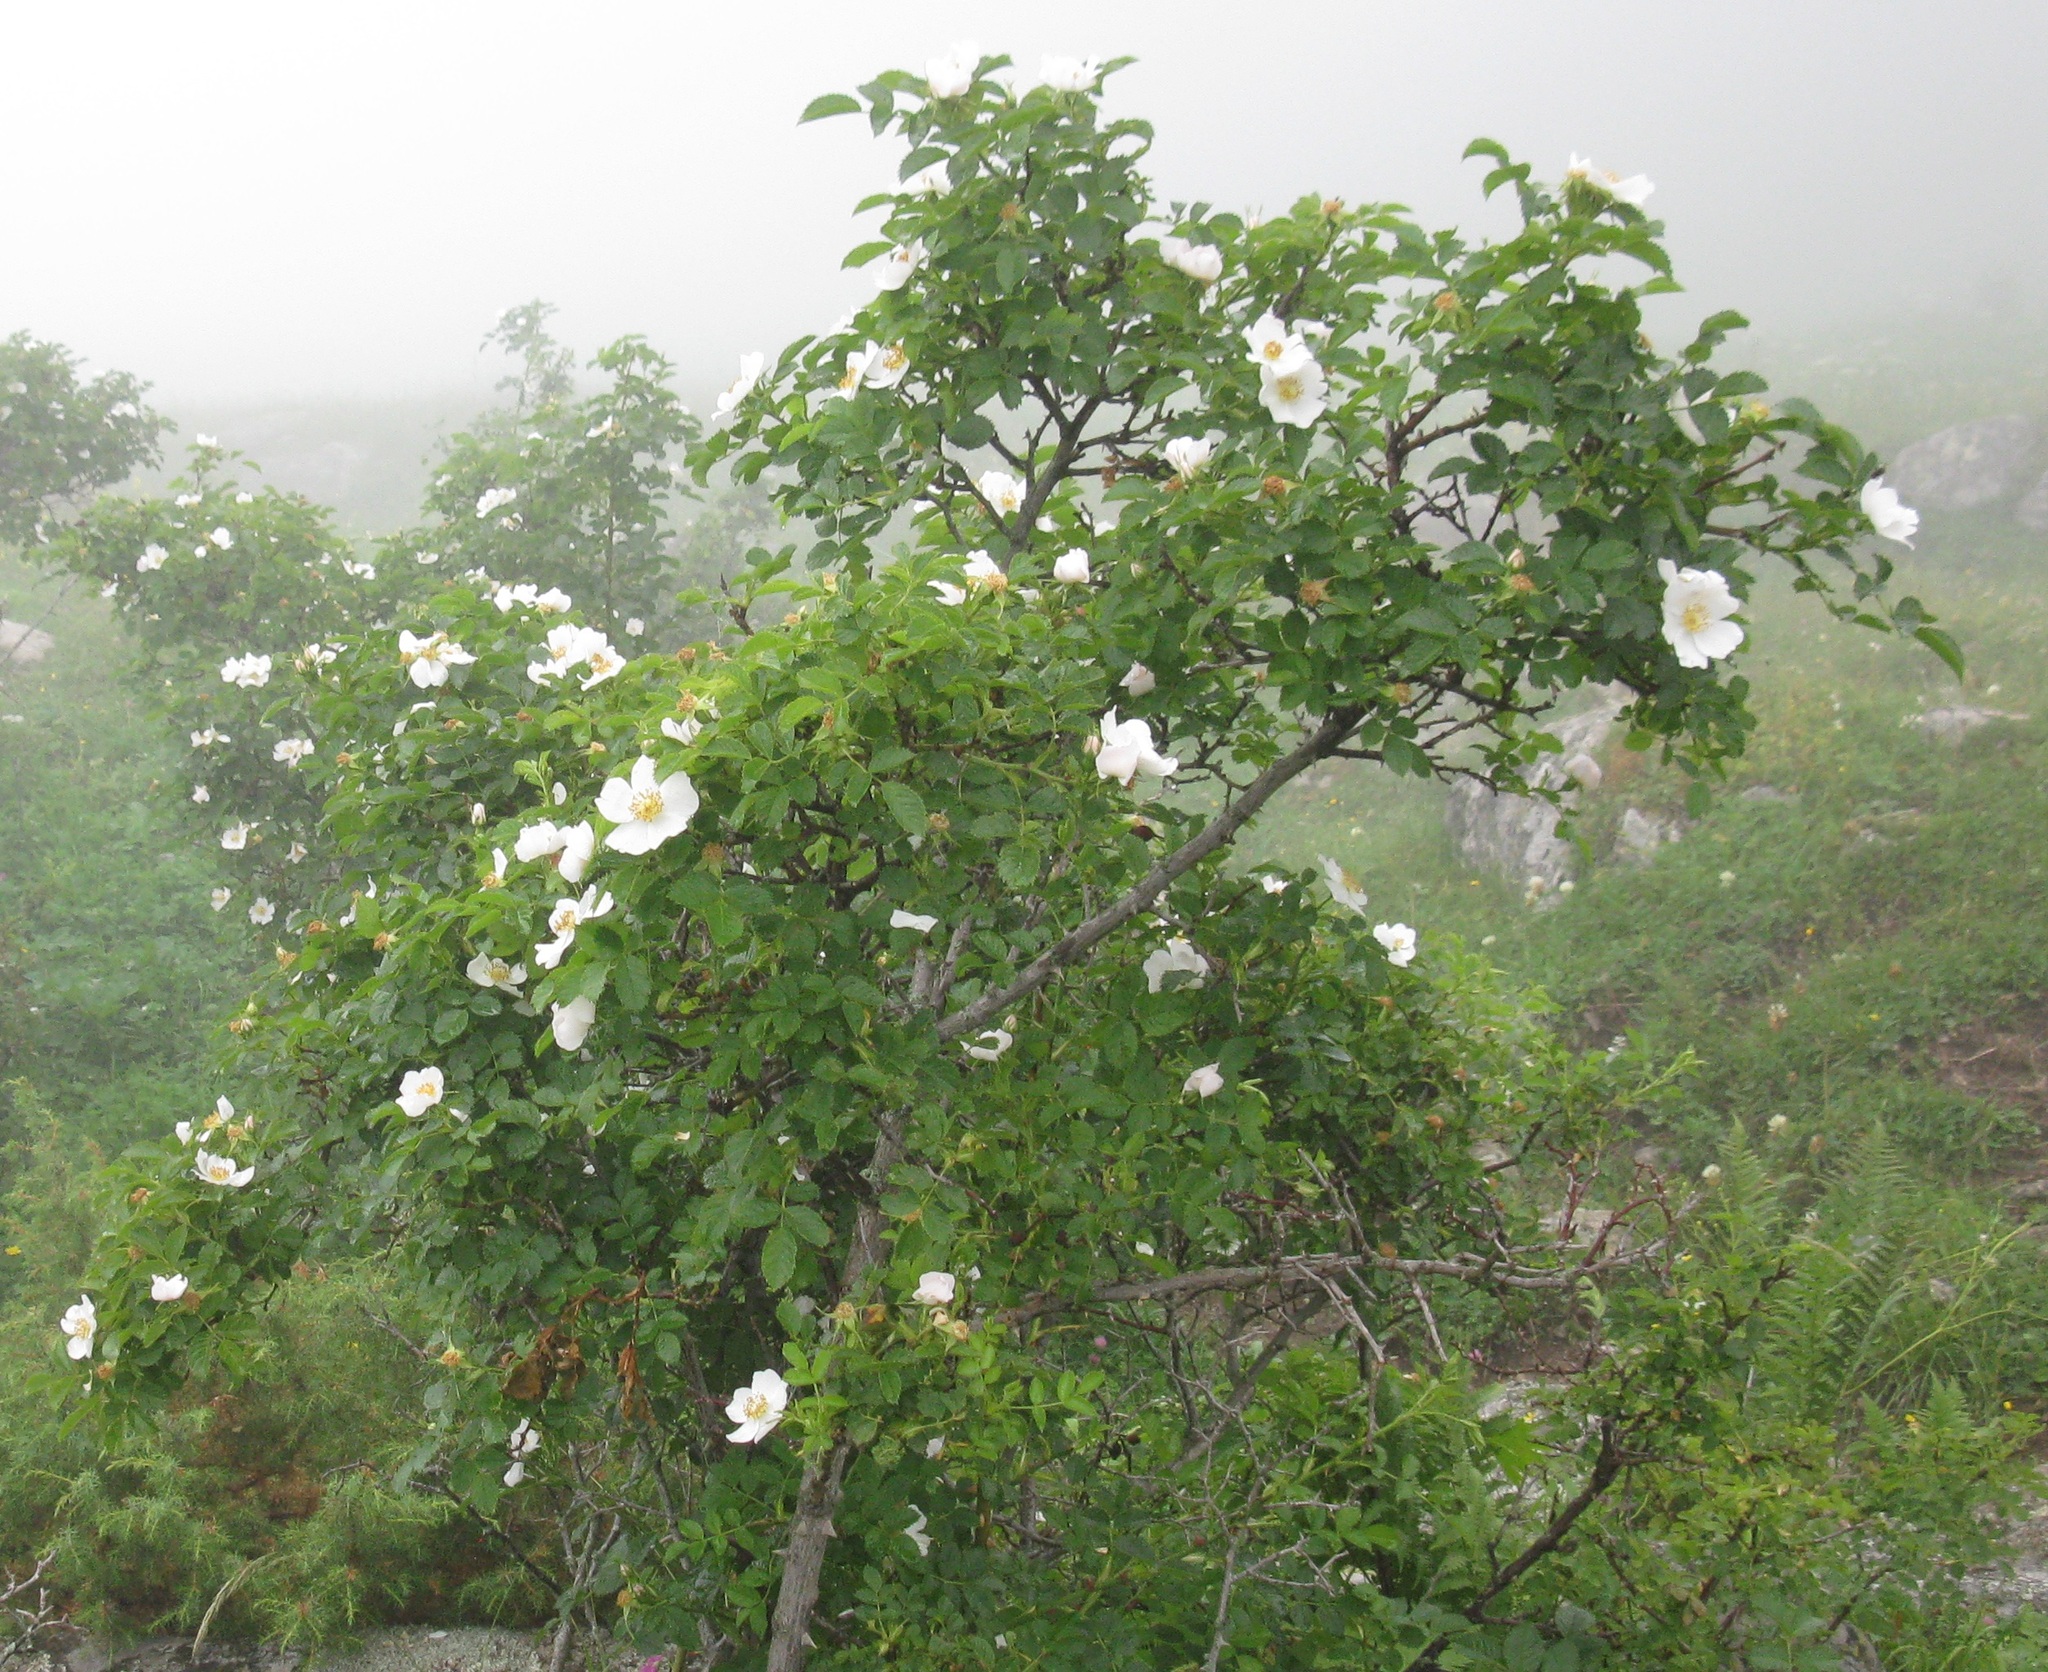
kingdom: Plantae
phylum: Tracheophyta
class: Magnoliopsida
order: Rosales
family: Rosaceae
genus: Rosa
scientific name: Rosa
